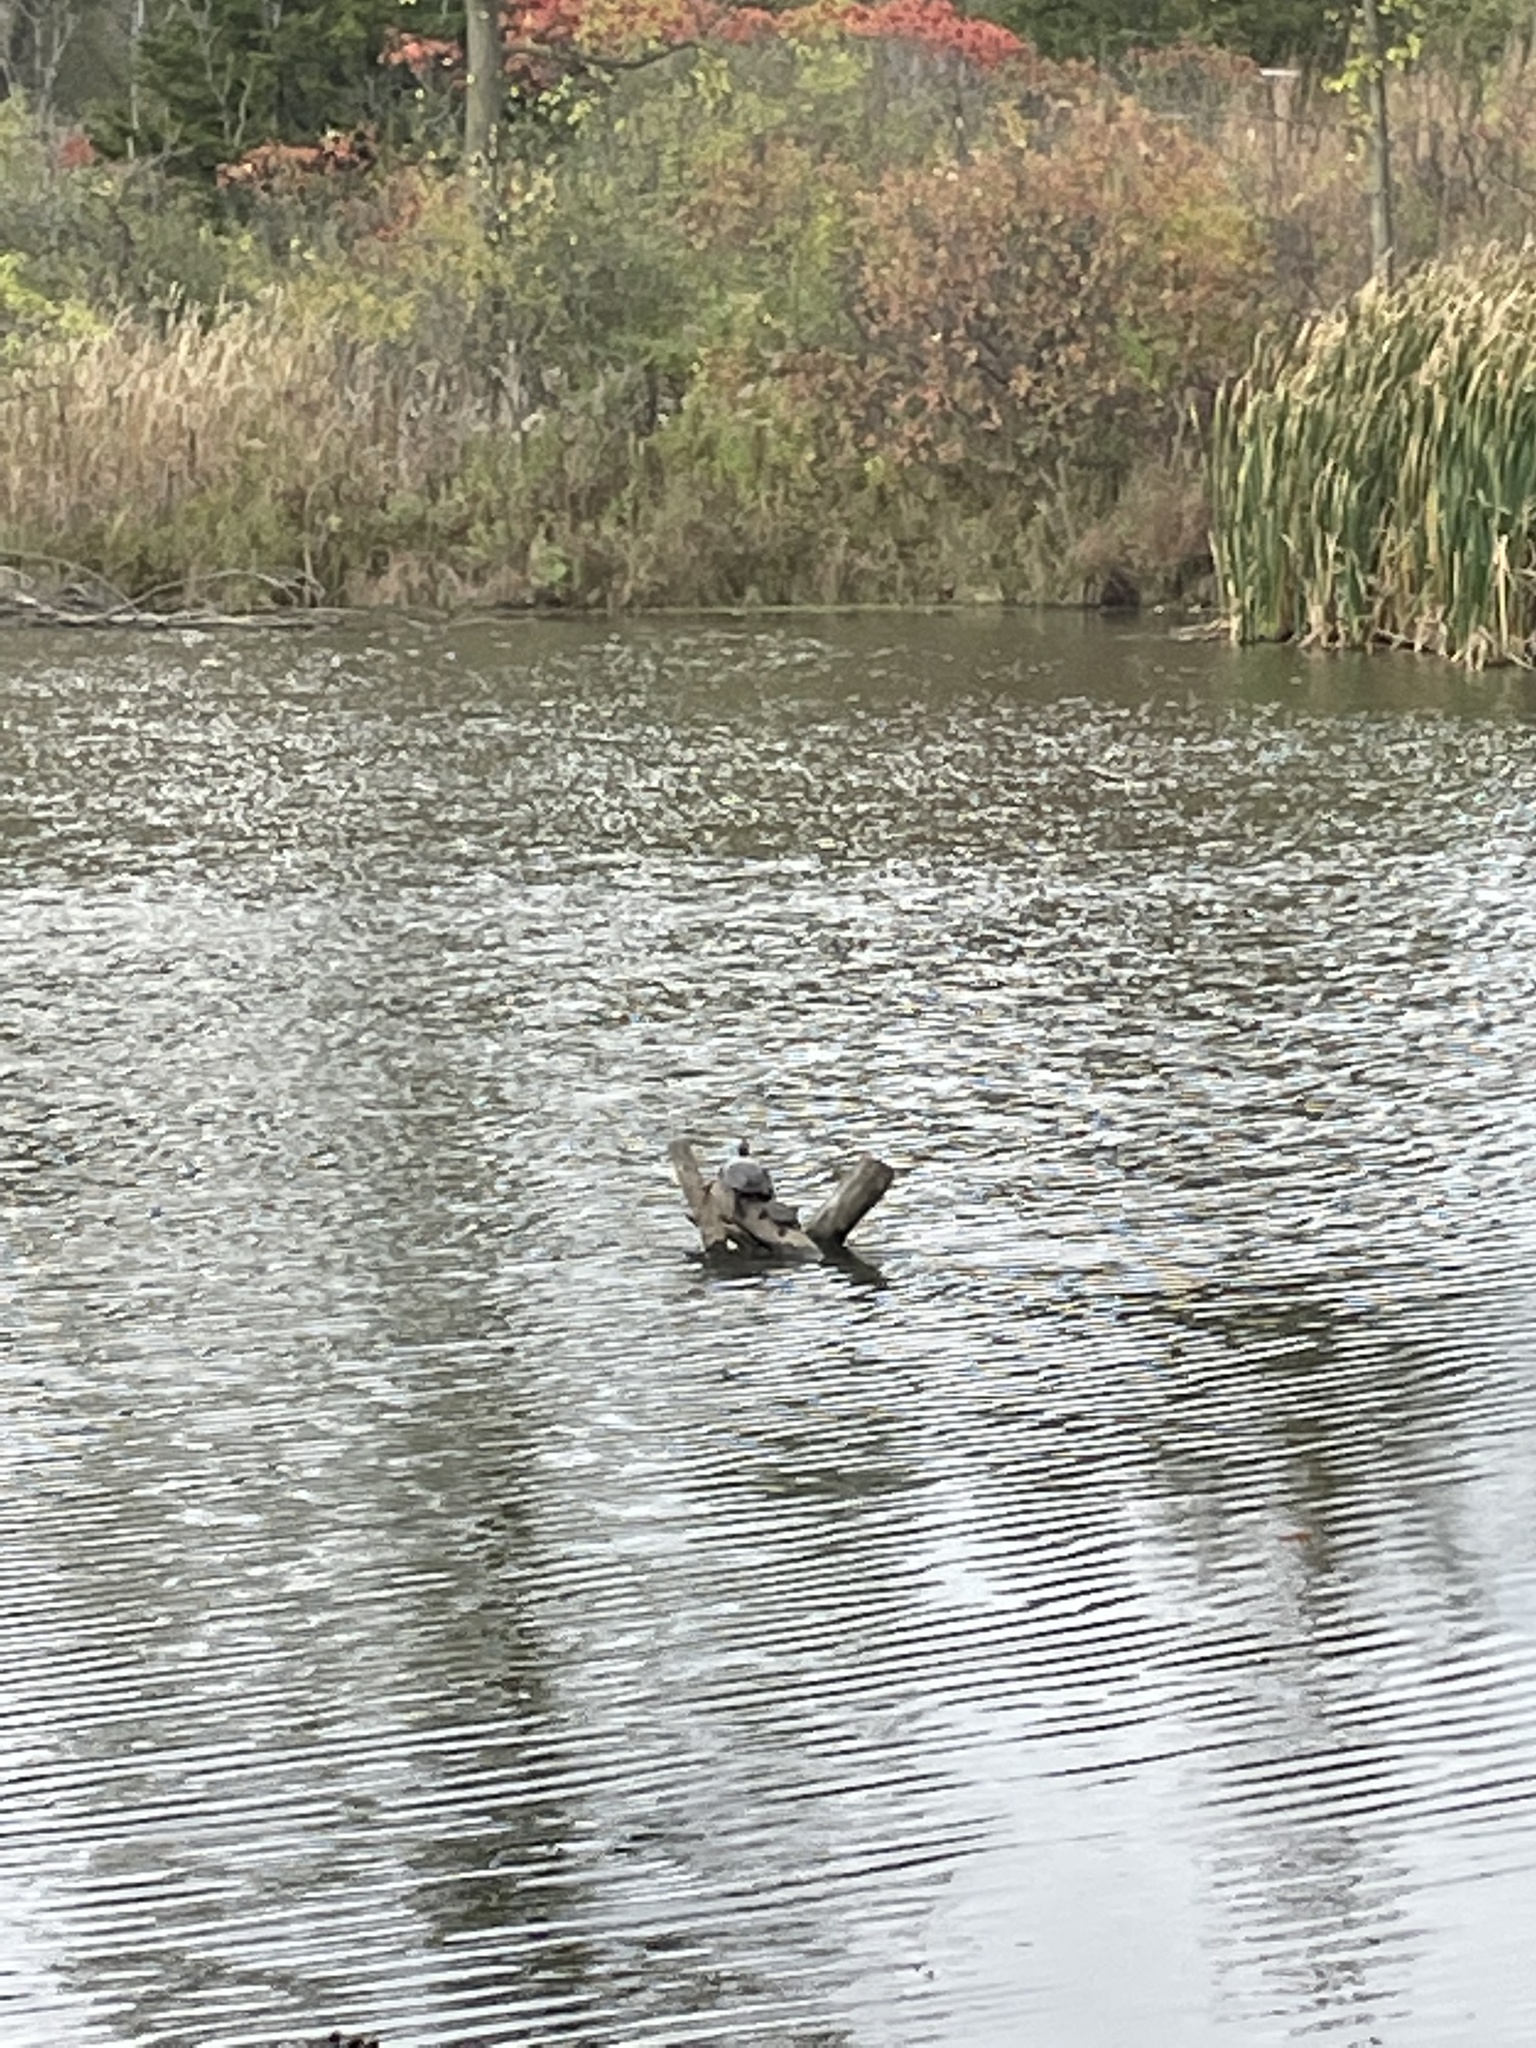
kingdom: Animalia
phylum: Chordata
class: Testudines
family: Emydidae
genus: Chrysemys
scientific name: Chrysemys picta
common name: Painted turtle
